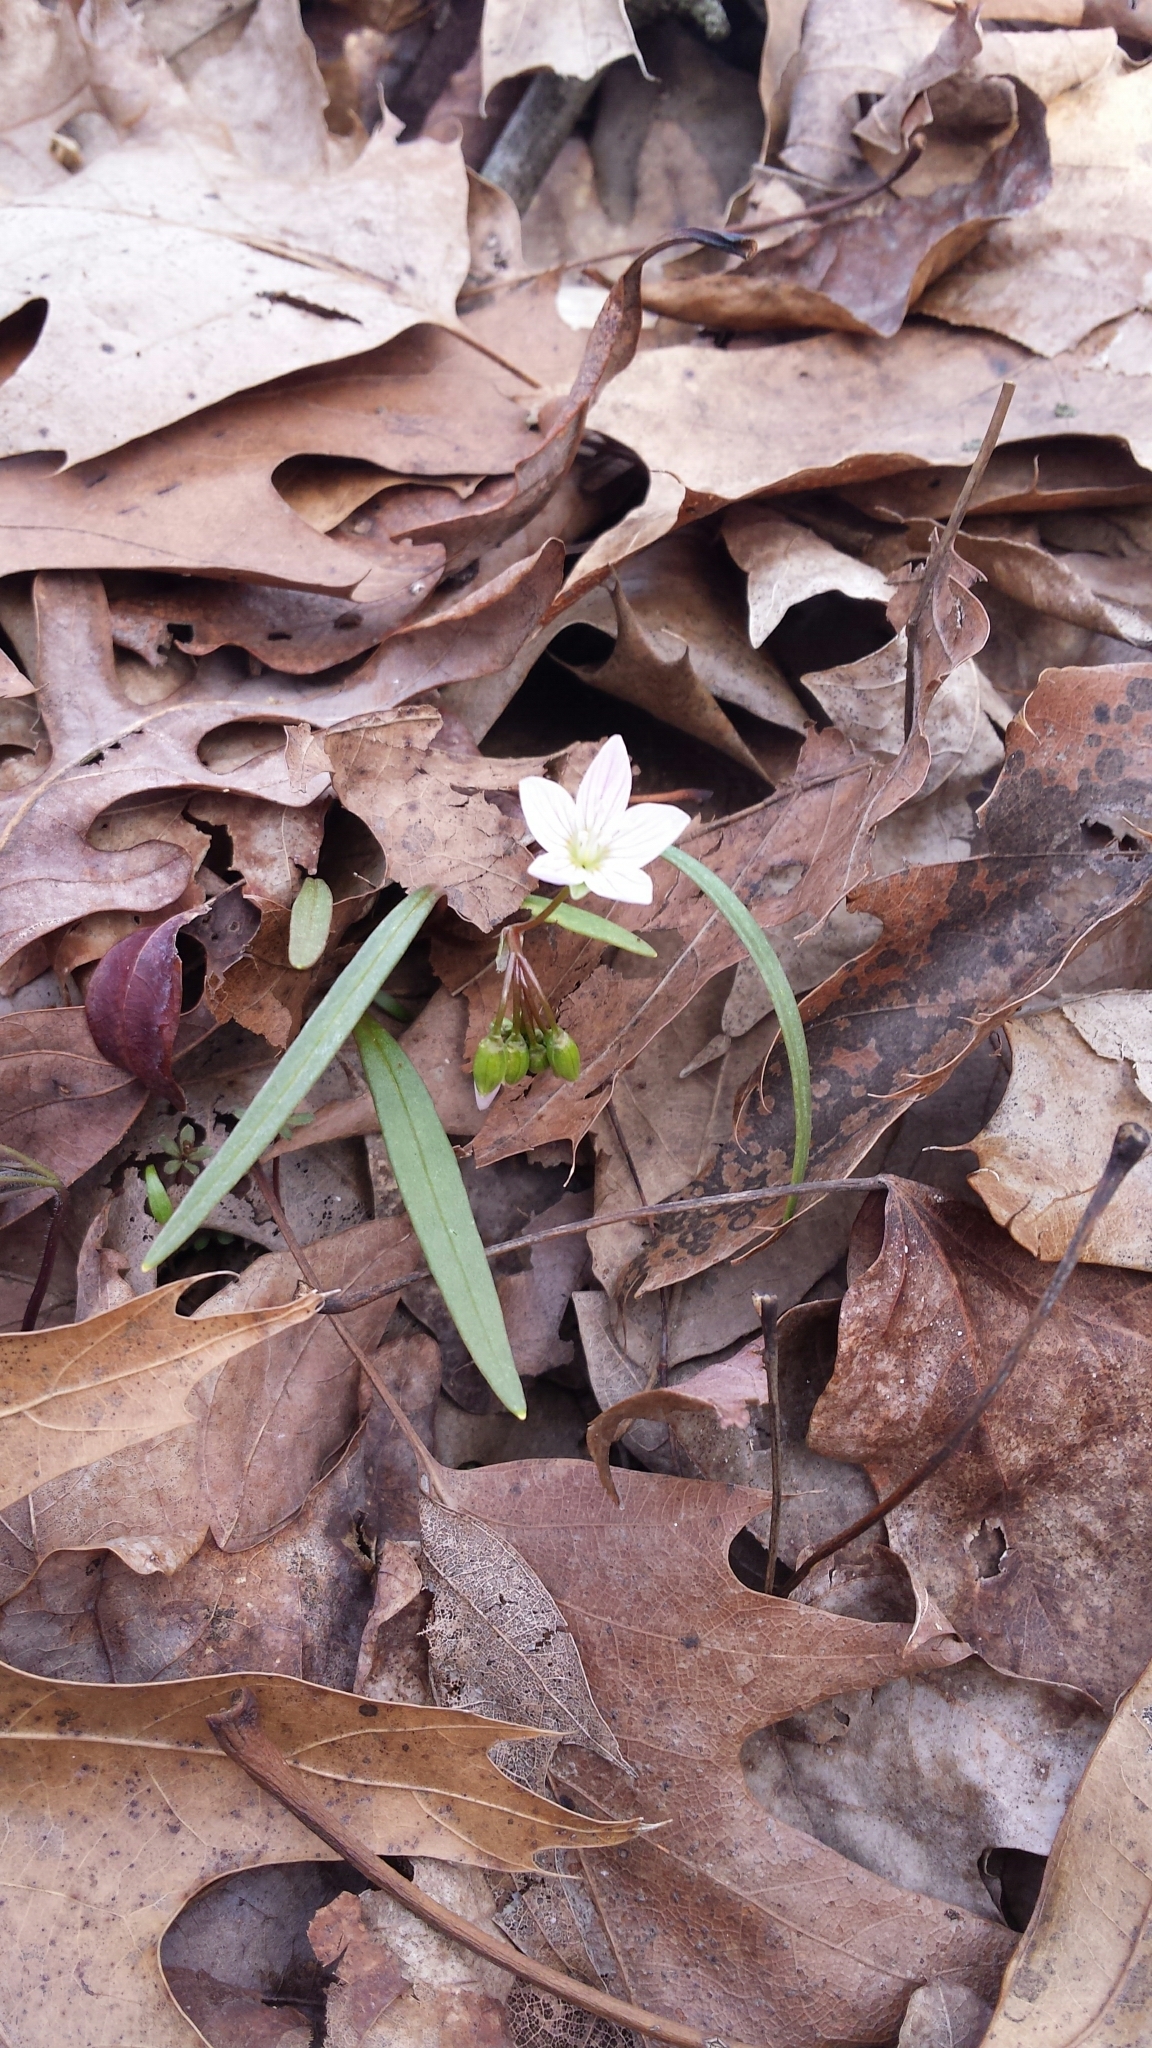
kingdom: Plantae
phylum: Tracheophyta
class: Magnoliopsida
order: Caryophyllales
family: Montiaceae
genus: Claytonia
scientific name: Claytonia virginica
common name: Virginia springbeauty
